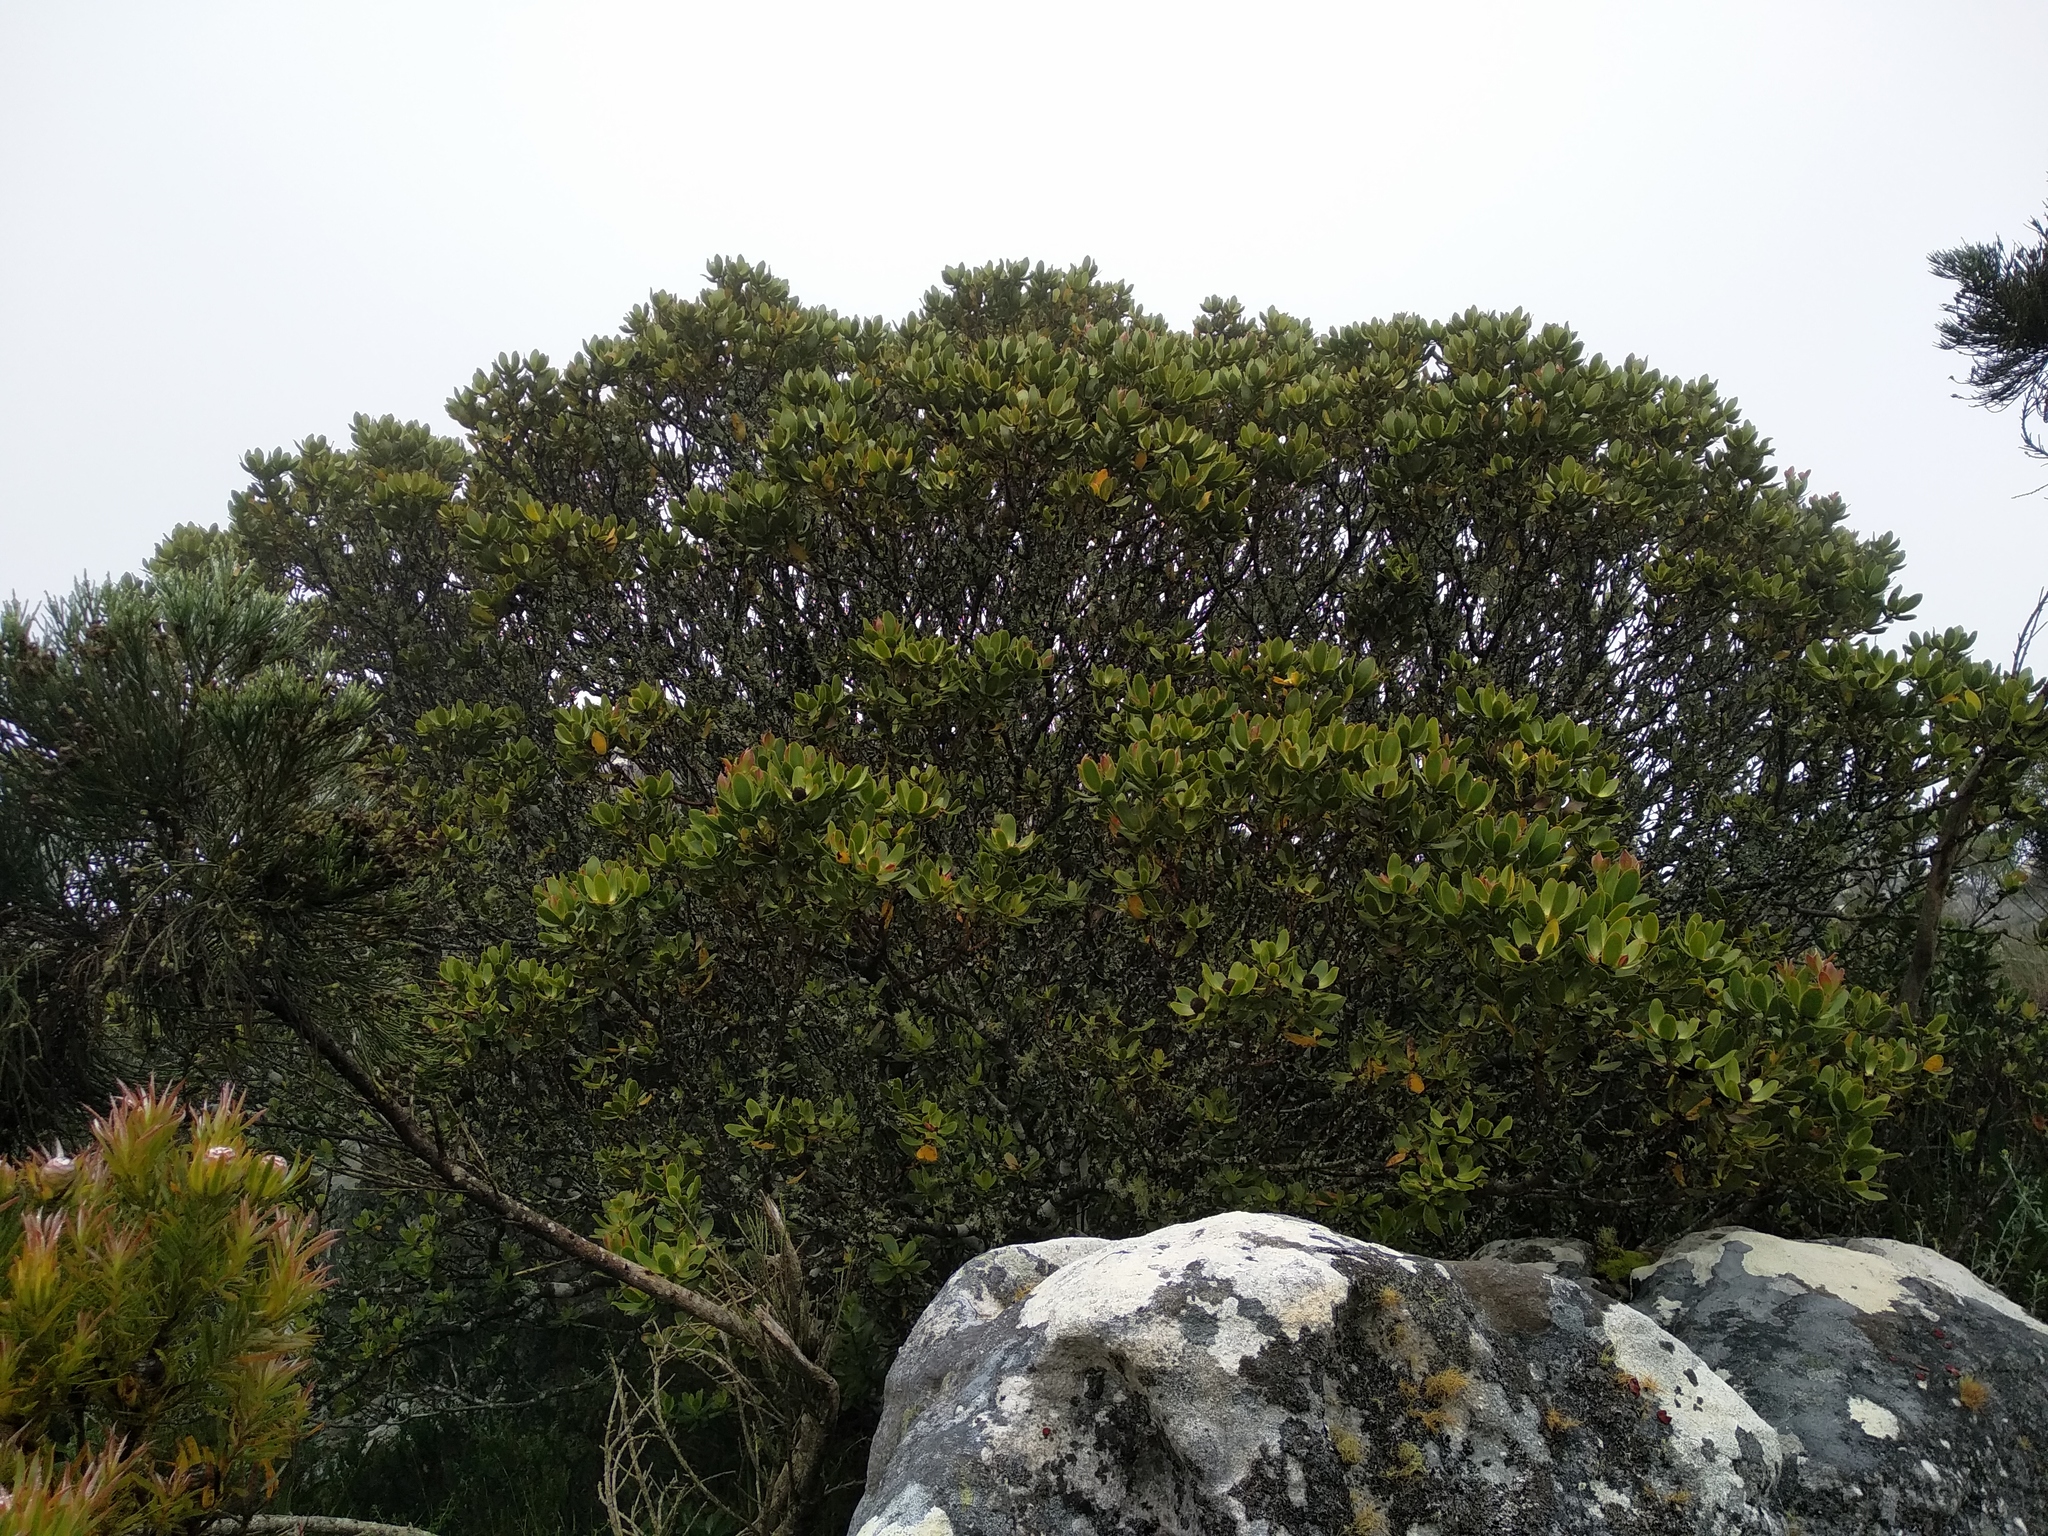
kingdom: Plantae
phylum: Tracheophyta
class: Magnoliopsida
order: Proteales
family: Proteaceae
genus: Leucadendron
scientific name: Leucadendron strobilinum
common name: Mountain rose
